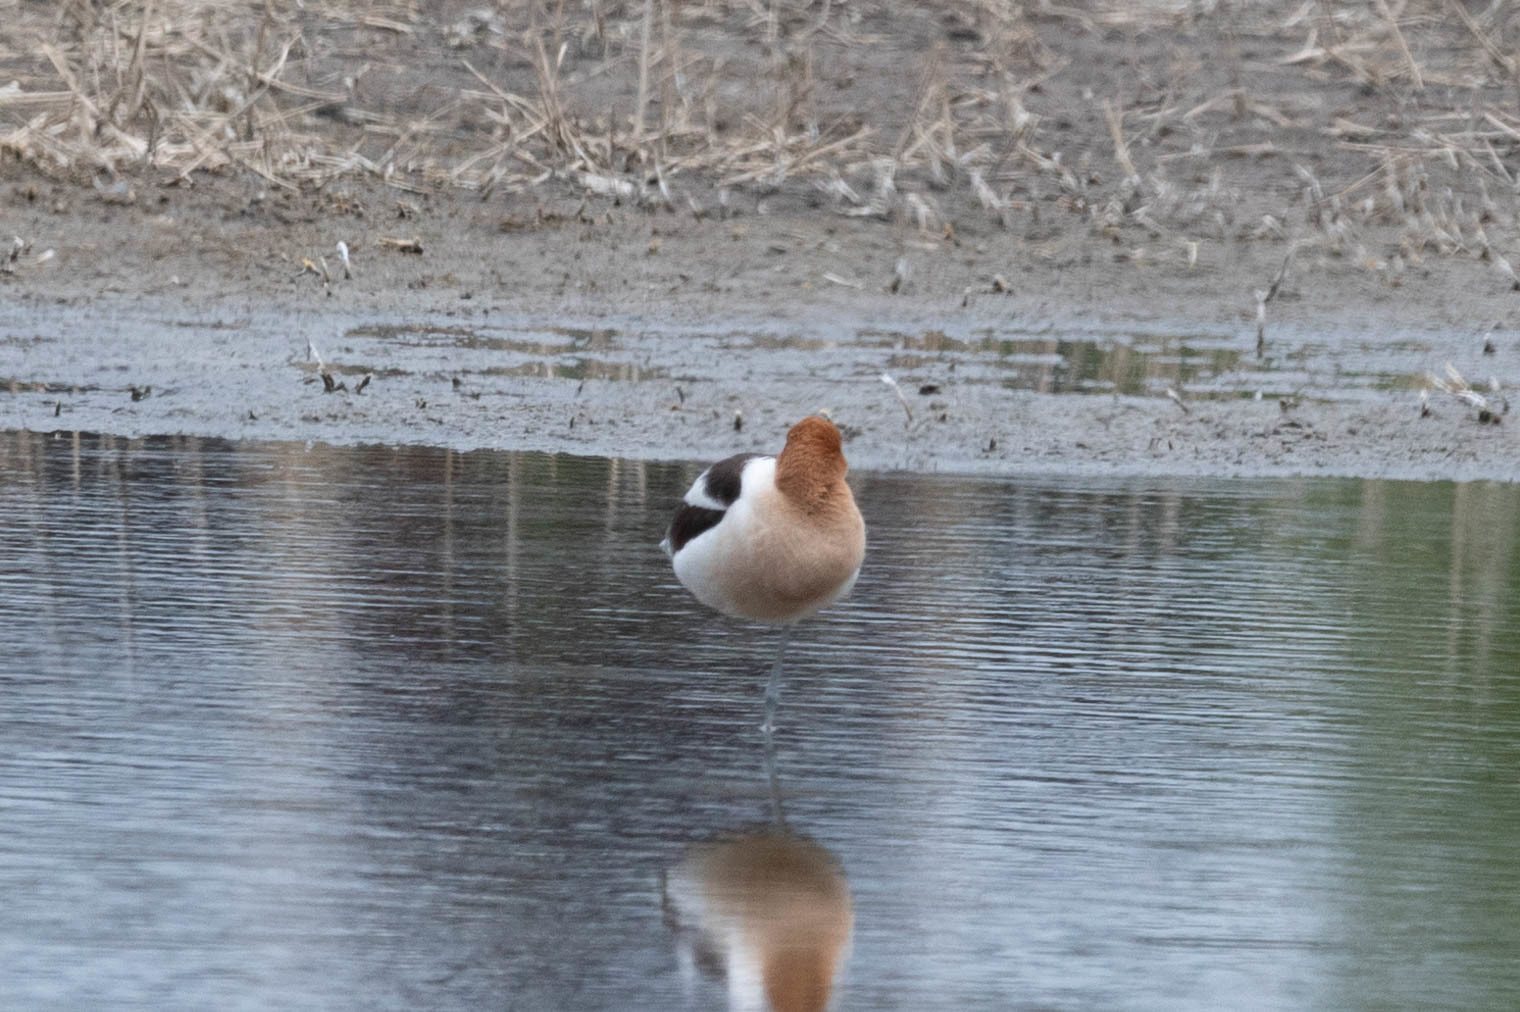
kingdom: Animalia
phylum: Chordata
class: Aves
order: Charadriiformes
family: Recurvirostridae
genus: Recurvirostra
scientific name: Recurvirostra americana
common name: American avocet
